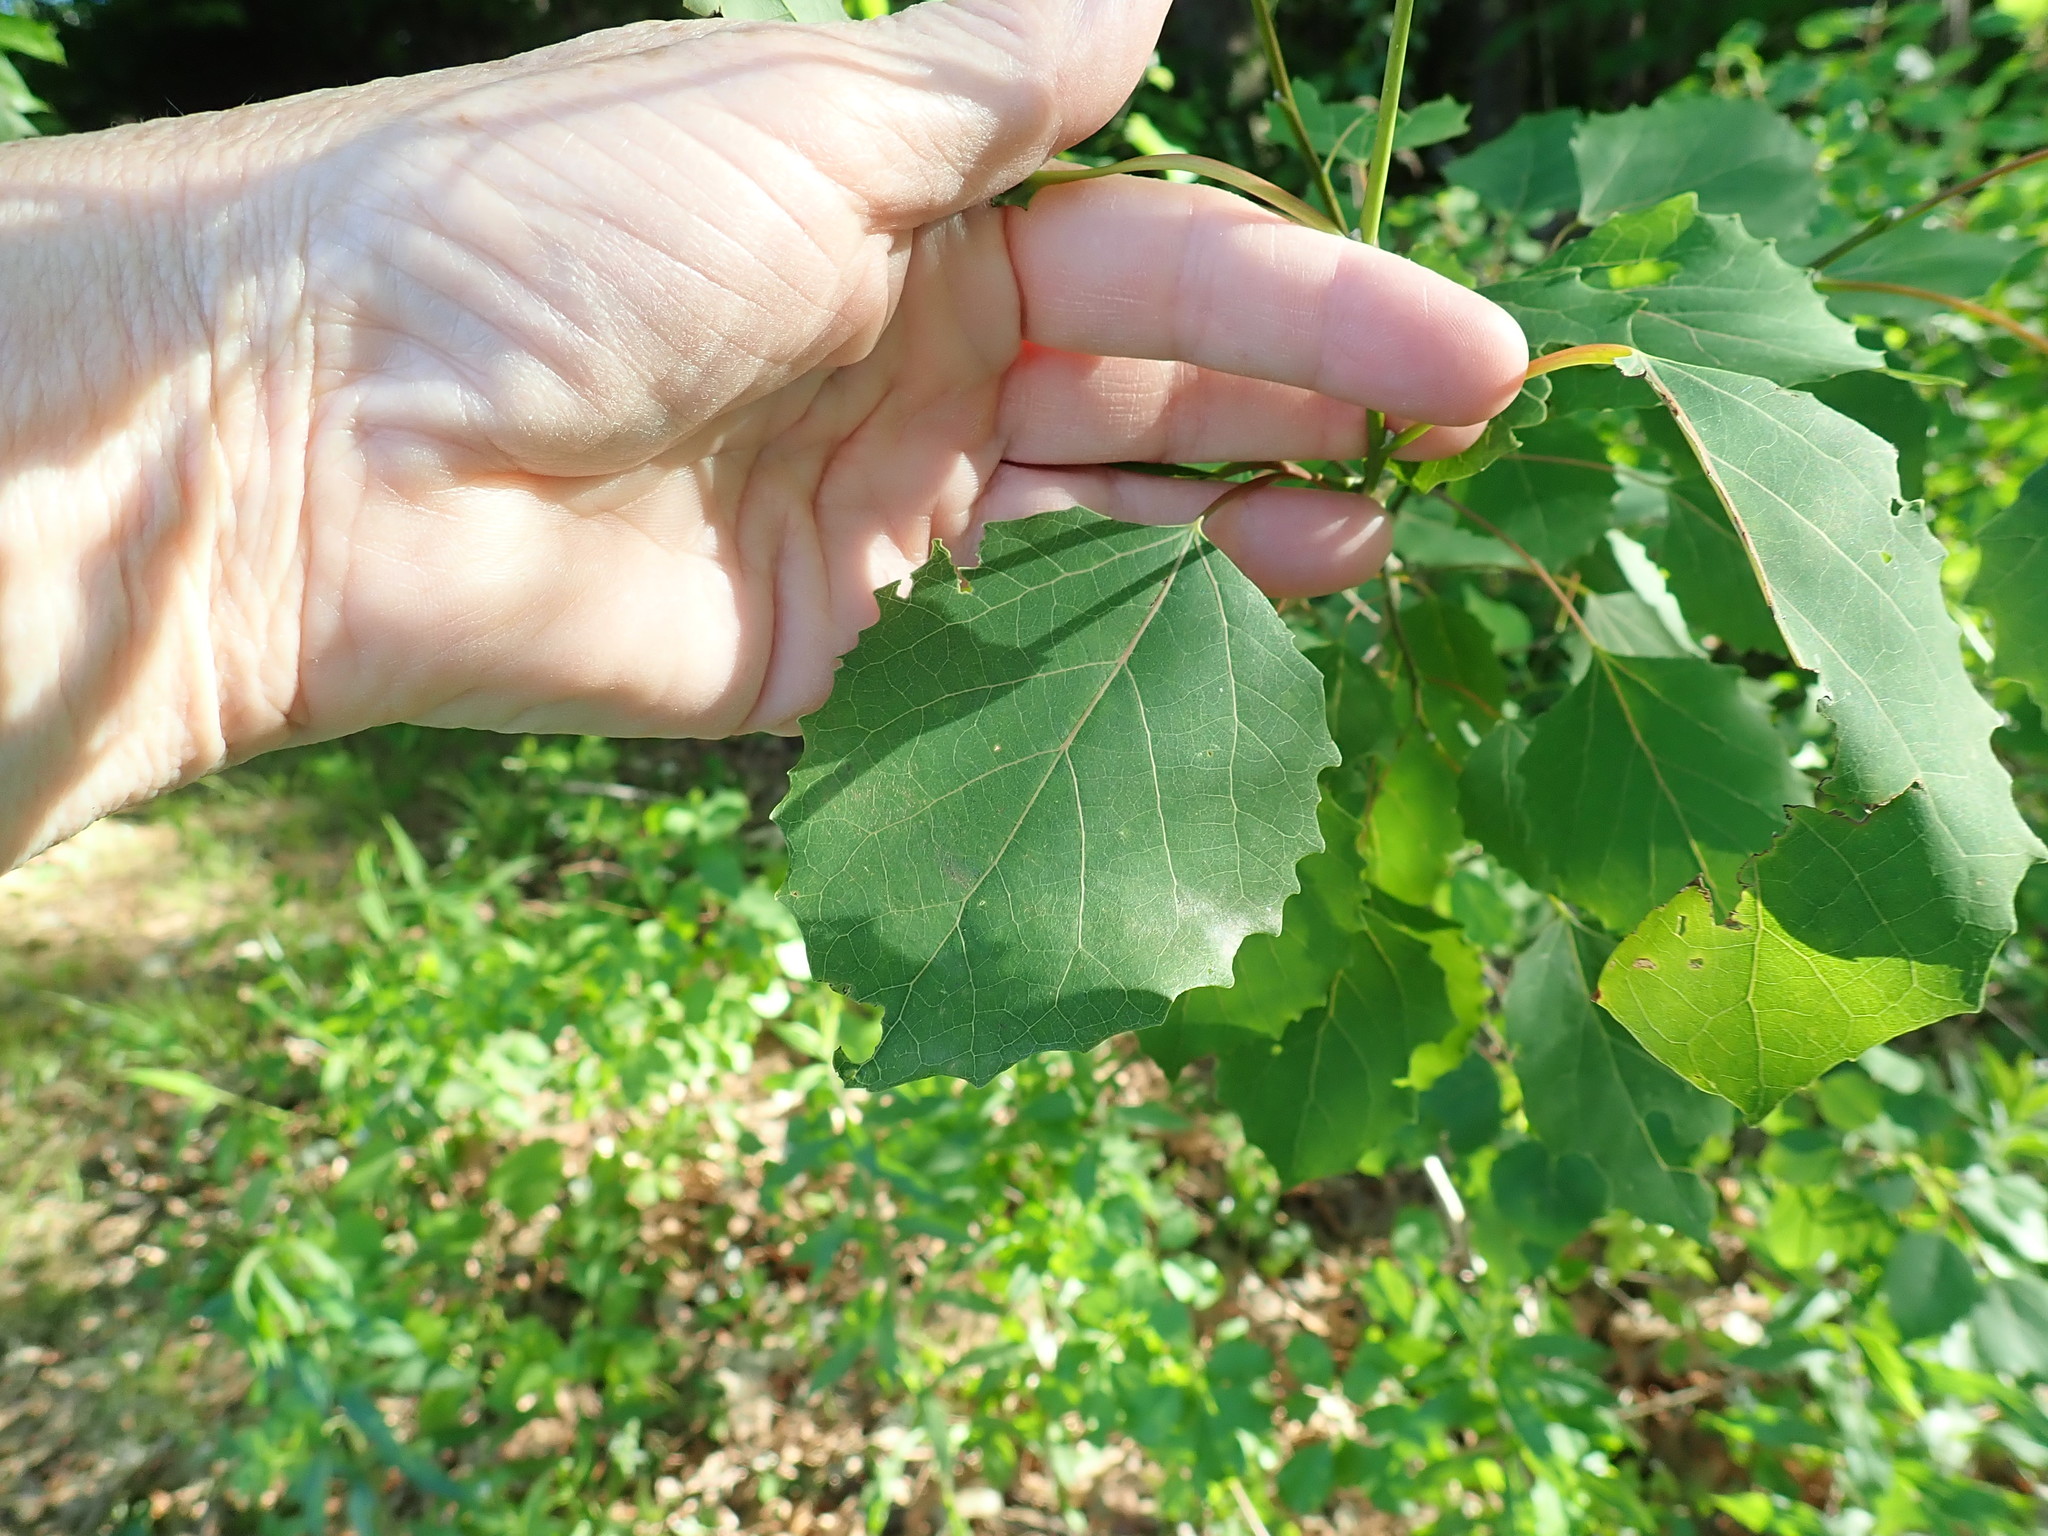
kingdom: Plantae
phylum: Tracheophyta
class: Magnoliopsida
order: Malpighiales
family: Salicaceae
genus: Populus
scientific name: Populus grandidentata
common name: Bigtooth aspen
